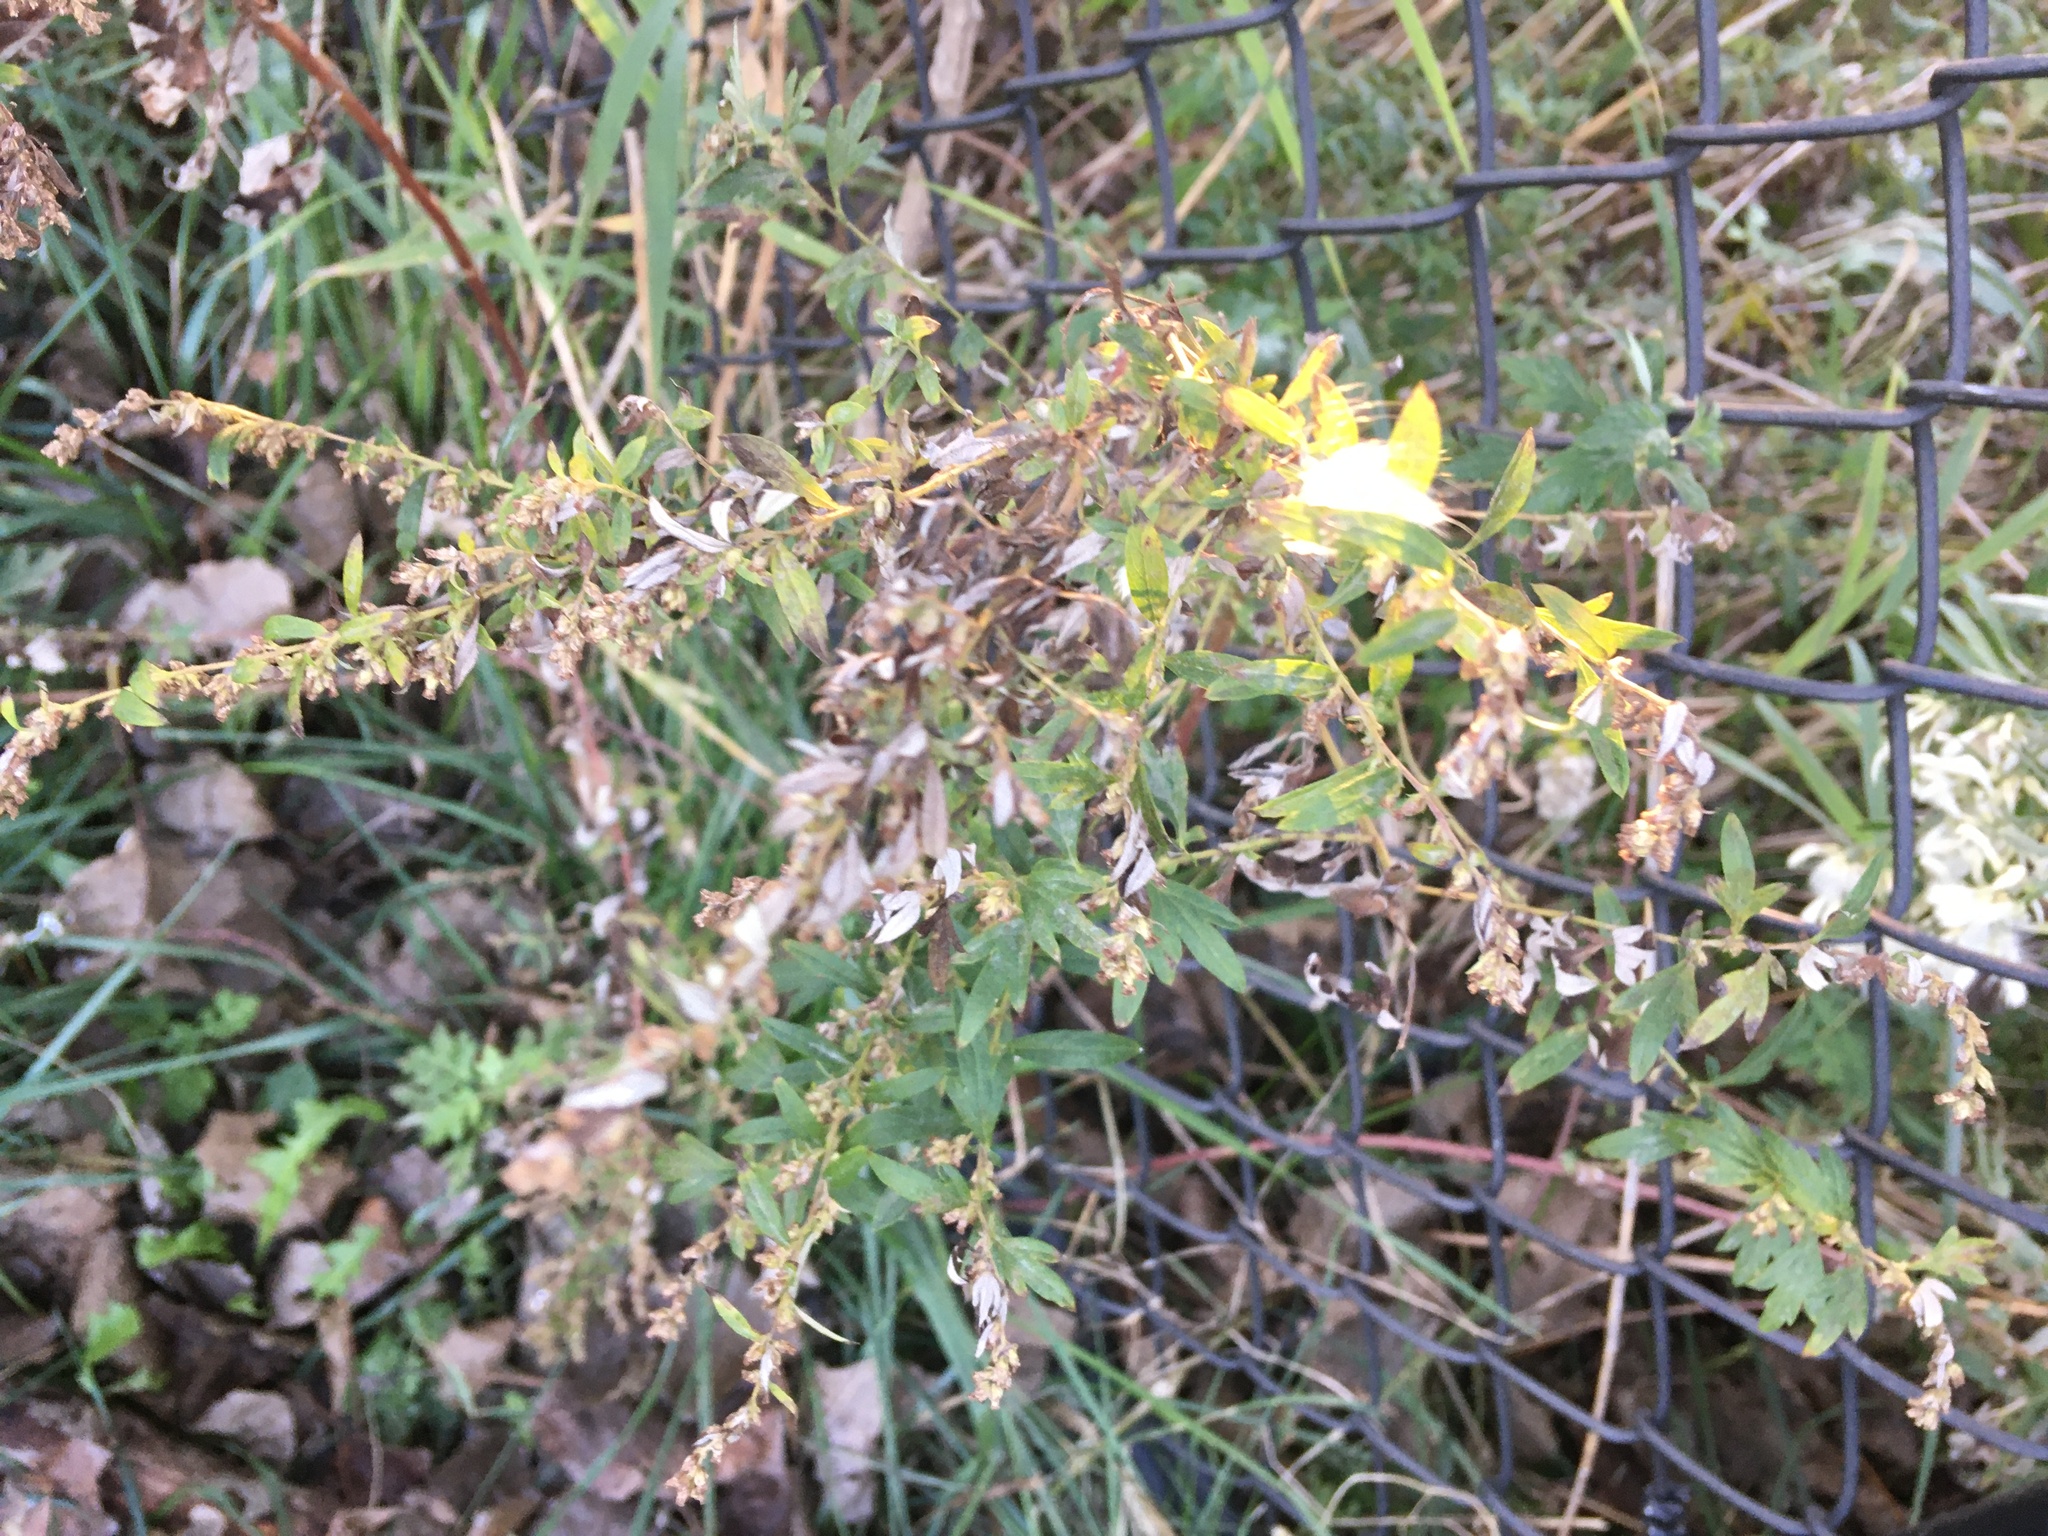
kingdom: Plantae
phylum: Tracheophyta
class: Magnoliopsida
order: Asterales
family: Asteraceae
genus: Artemisia
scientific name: Artemisia vulgaris
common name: Mugwort
